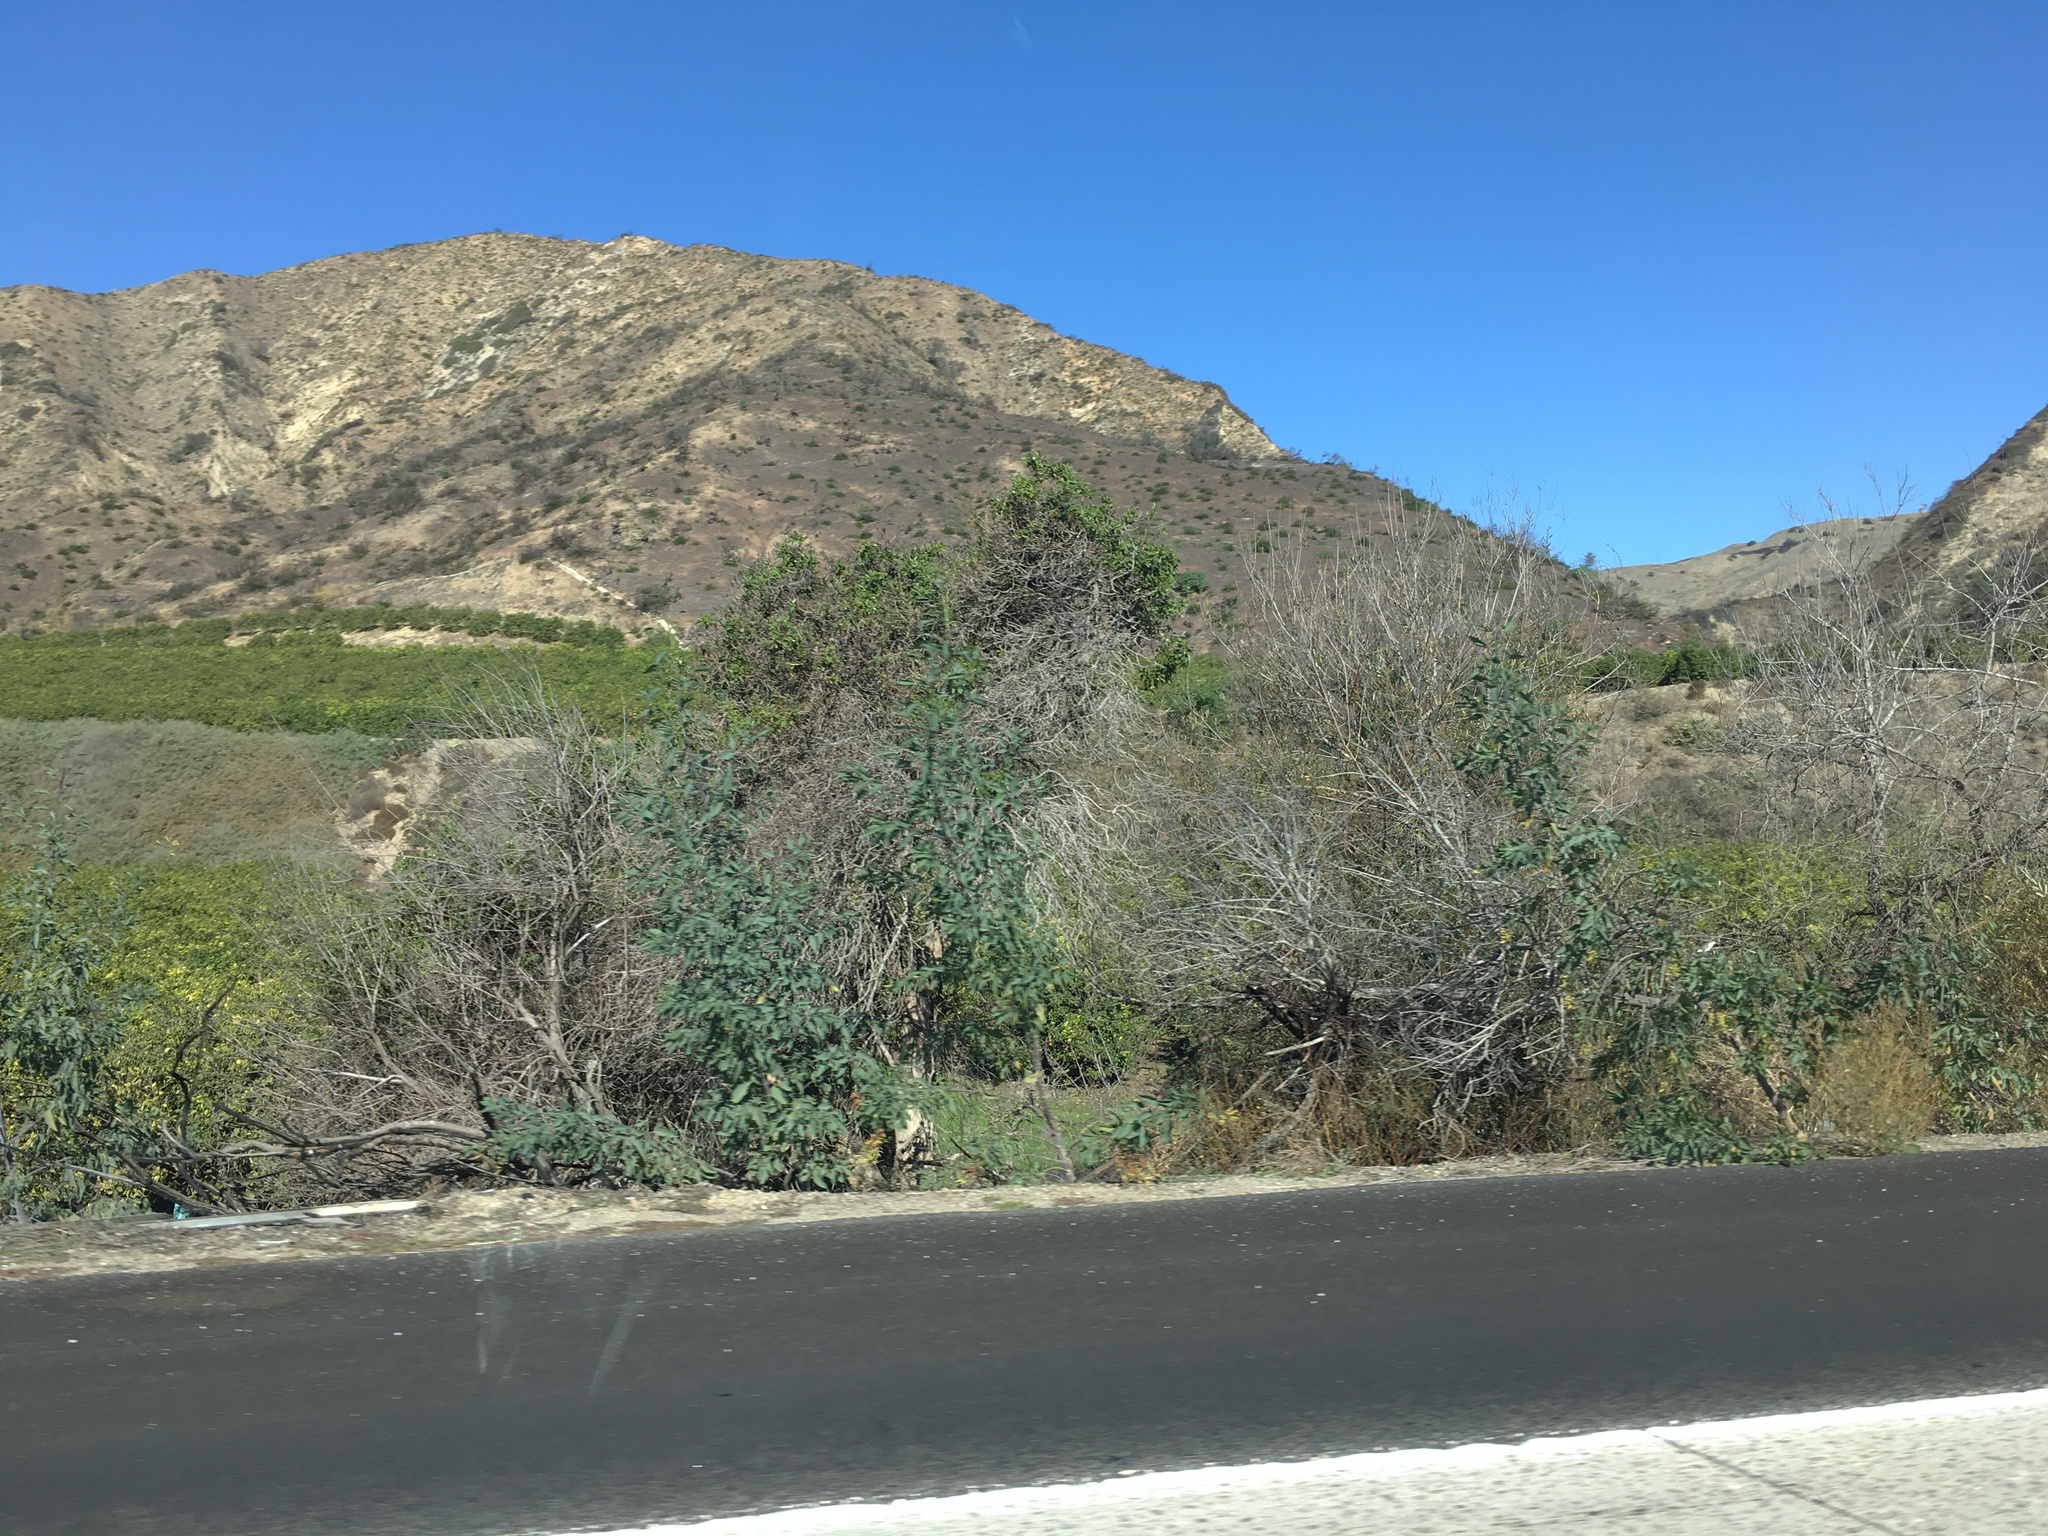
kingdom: Plantae
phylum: Tracheophyta
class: Magnoliopsida
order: Lamiales
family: Scrophulariaceae
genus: Myoporum
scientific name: Myoporum laetum
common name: Ngaio tree
